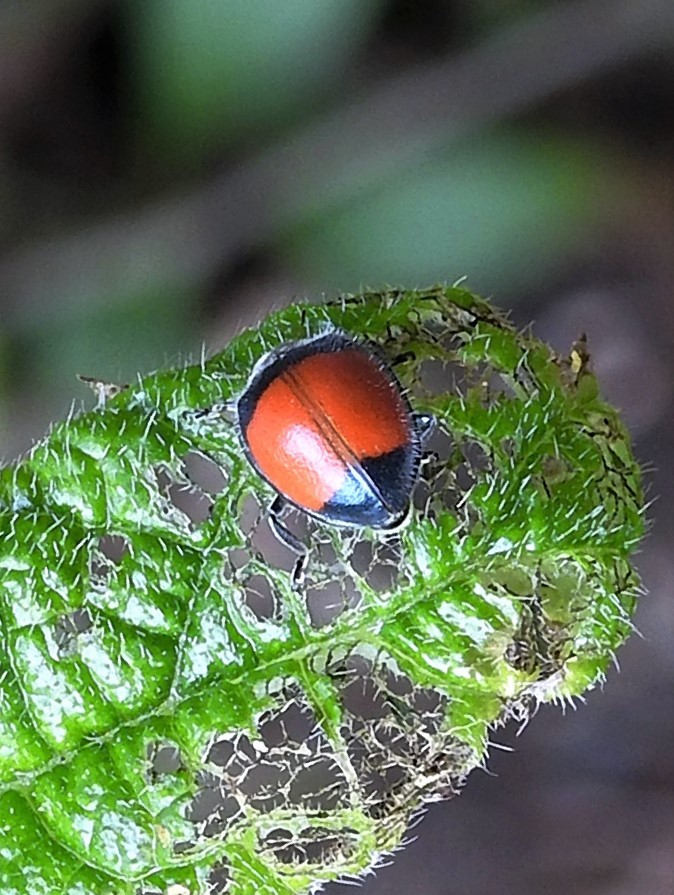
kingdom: Animalia
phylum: Arthropoda
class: Insecta
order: Coleoptera
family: Coccinellidae
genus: Toxotoma
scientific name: Toxotoma
